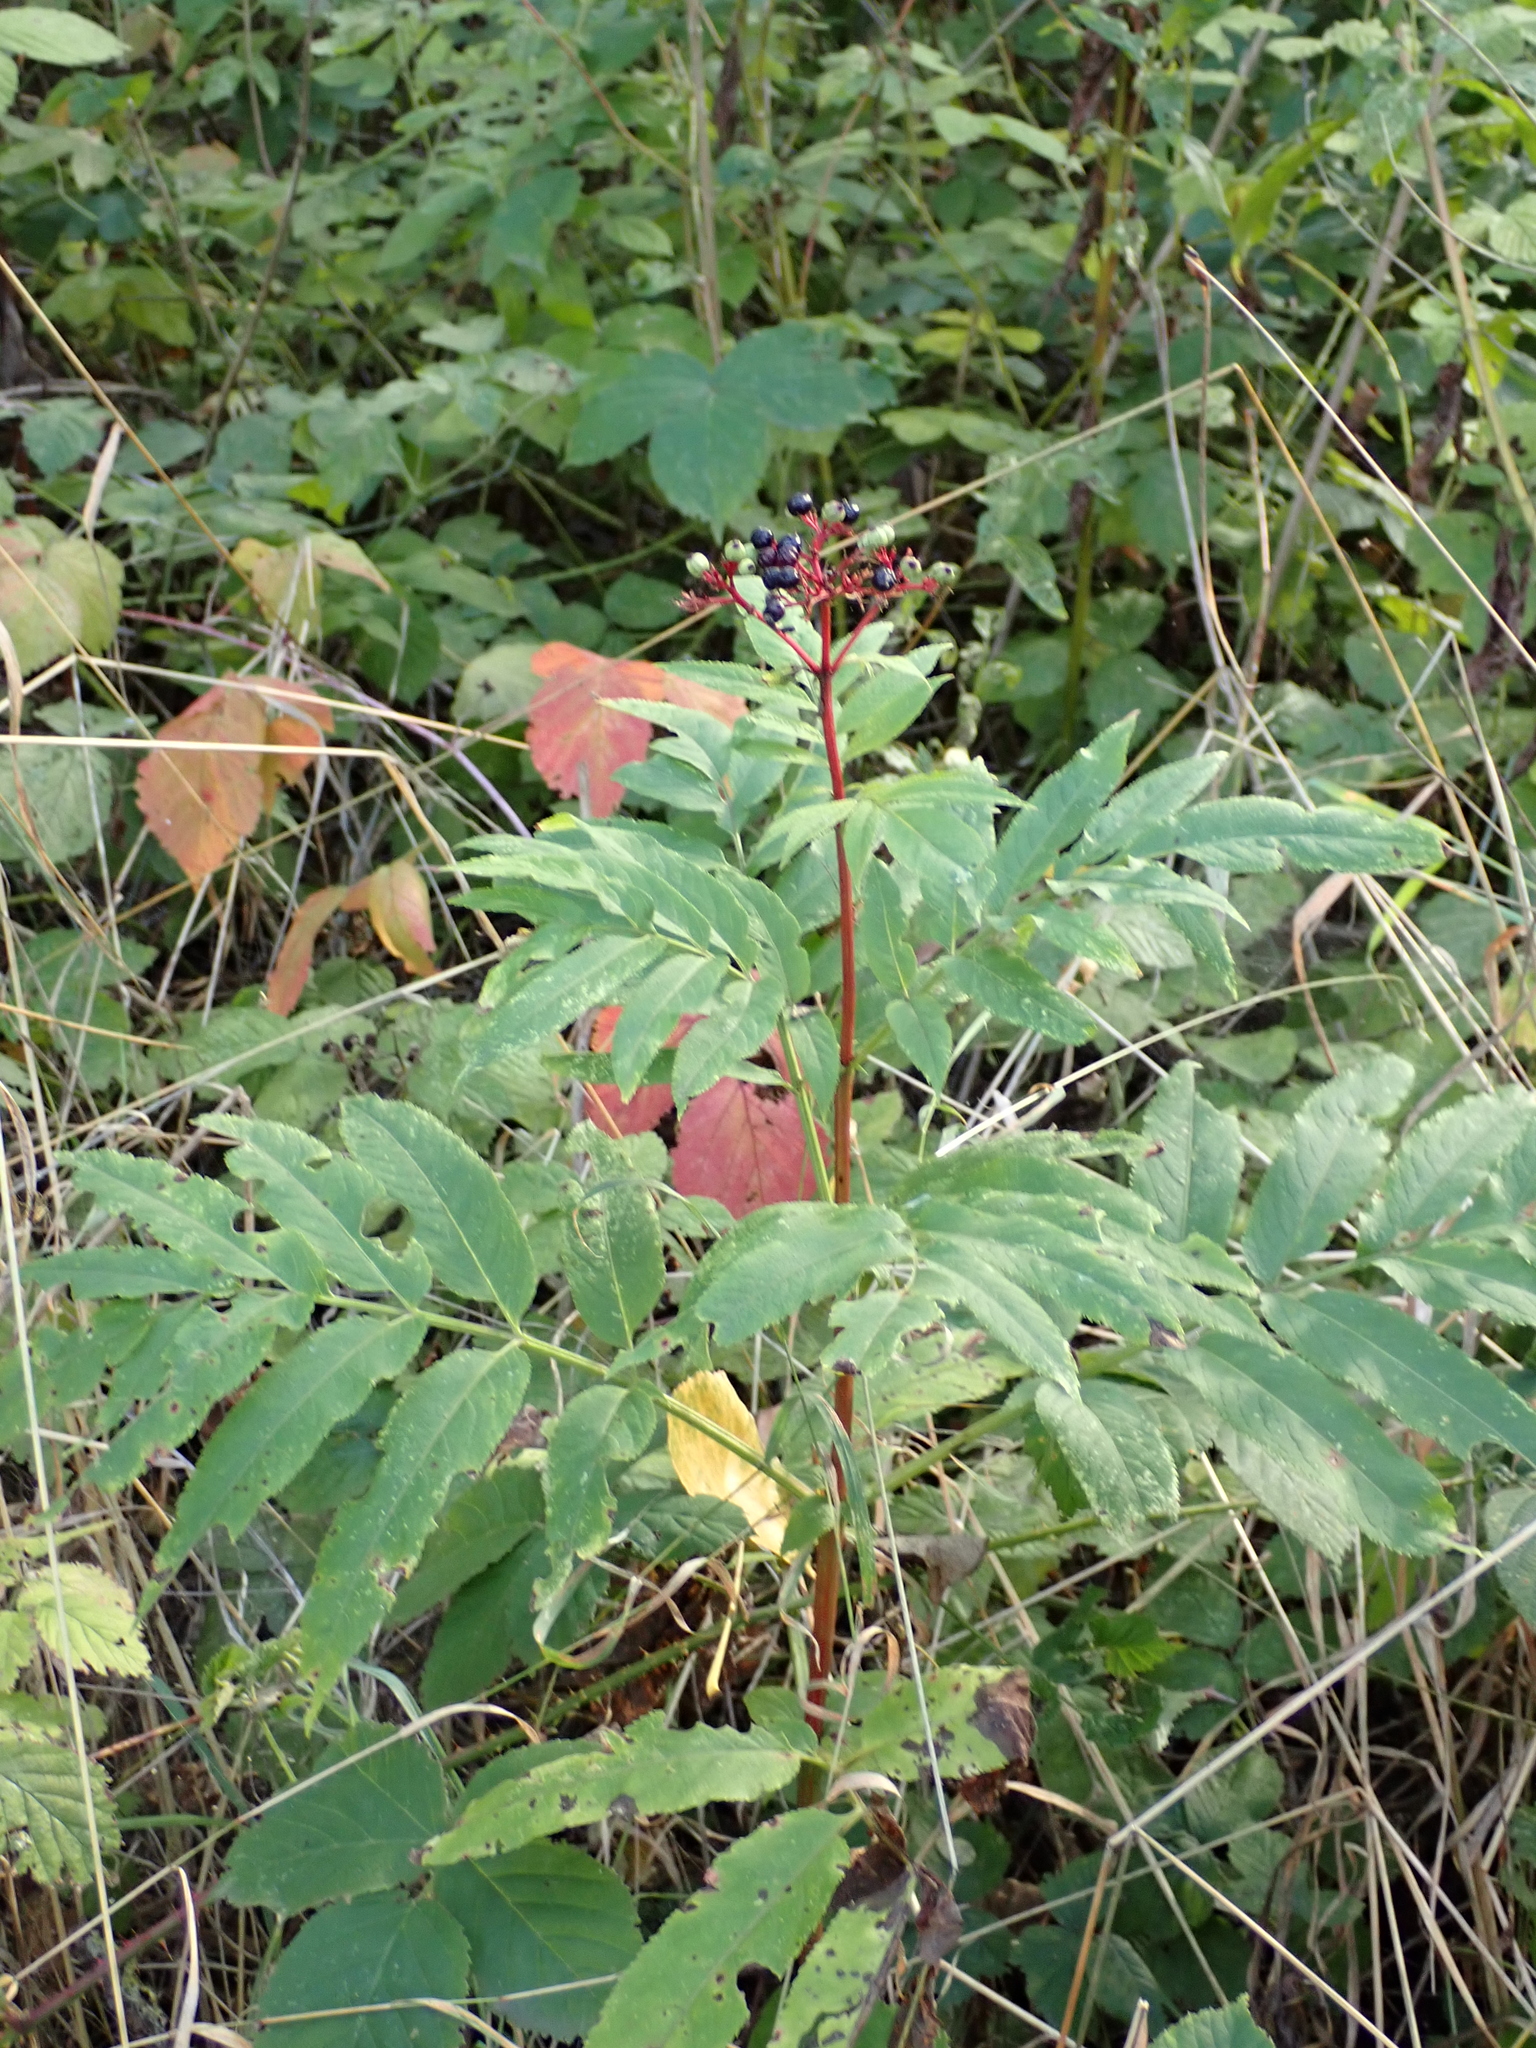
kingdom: Plantae
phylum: Tracheophyta
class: Magnoliopsida
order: Dipsacales
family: Viburnaceae
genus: Sambucus
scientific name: Sambucus ebulus
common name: Dwarf elder
